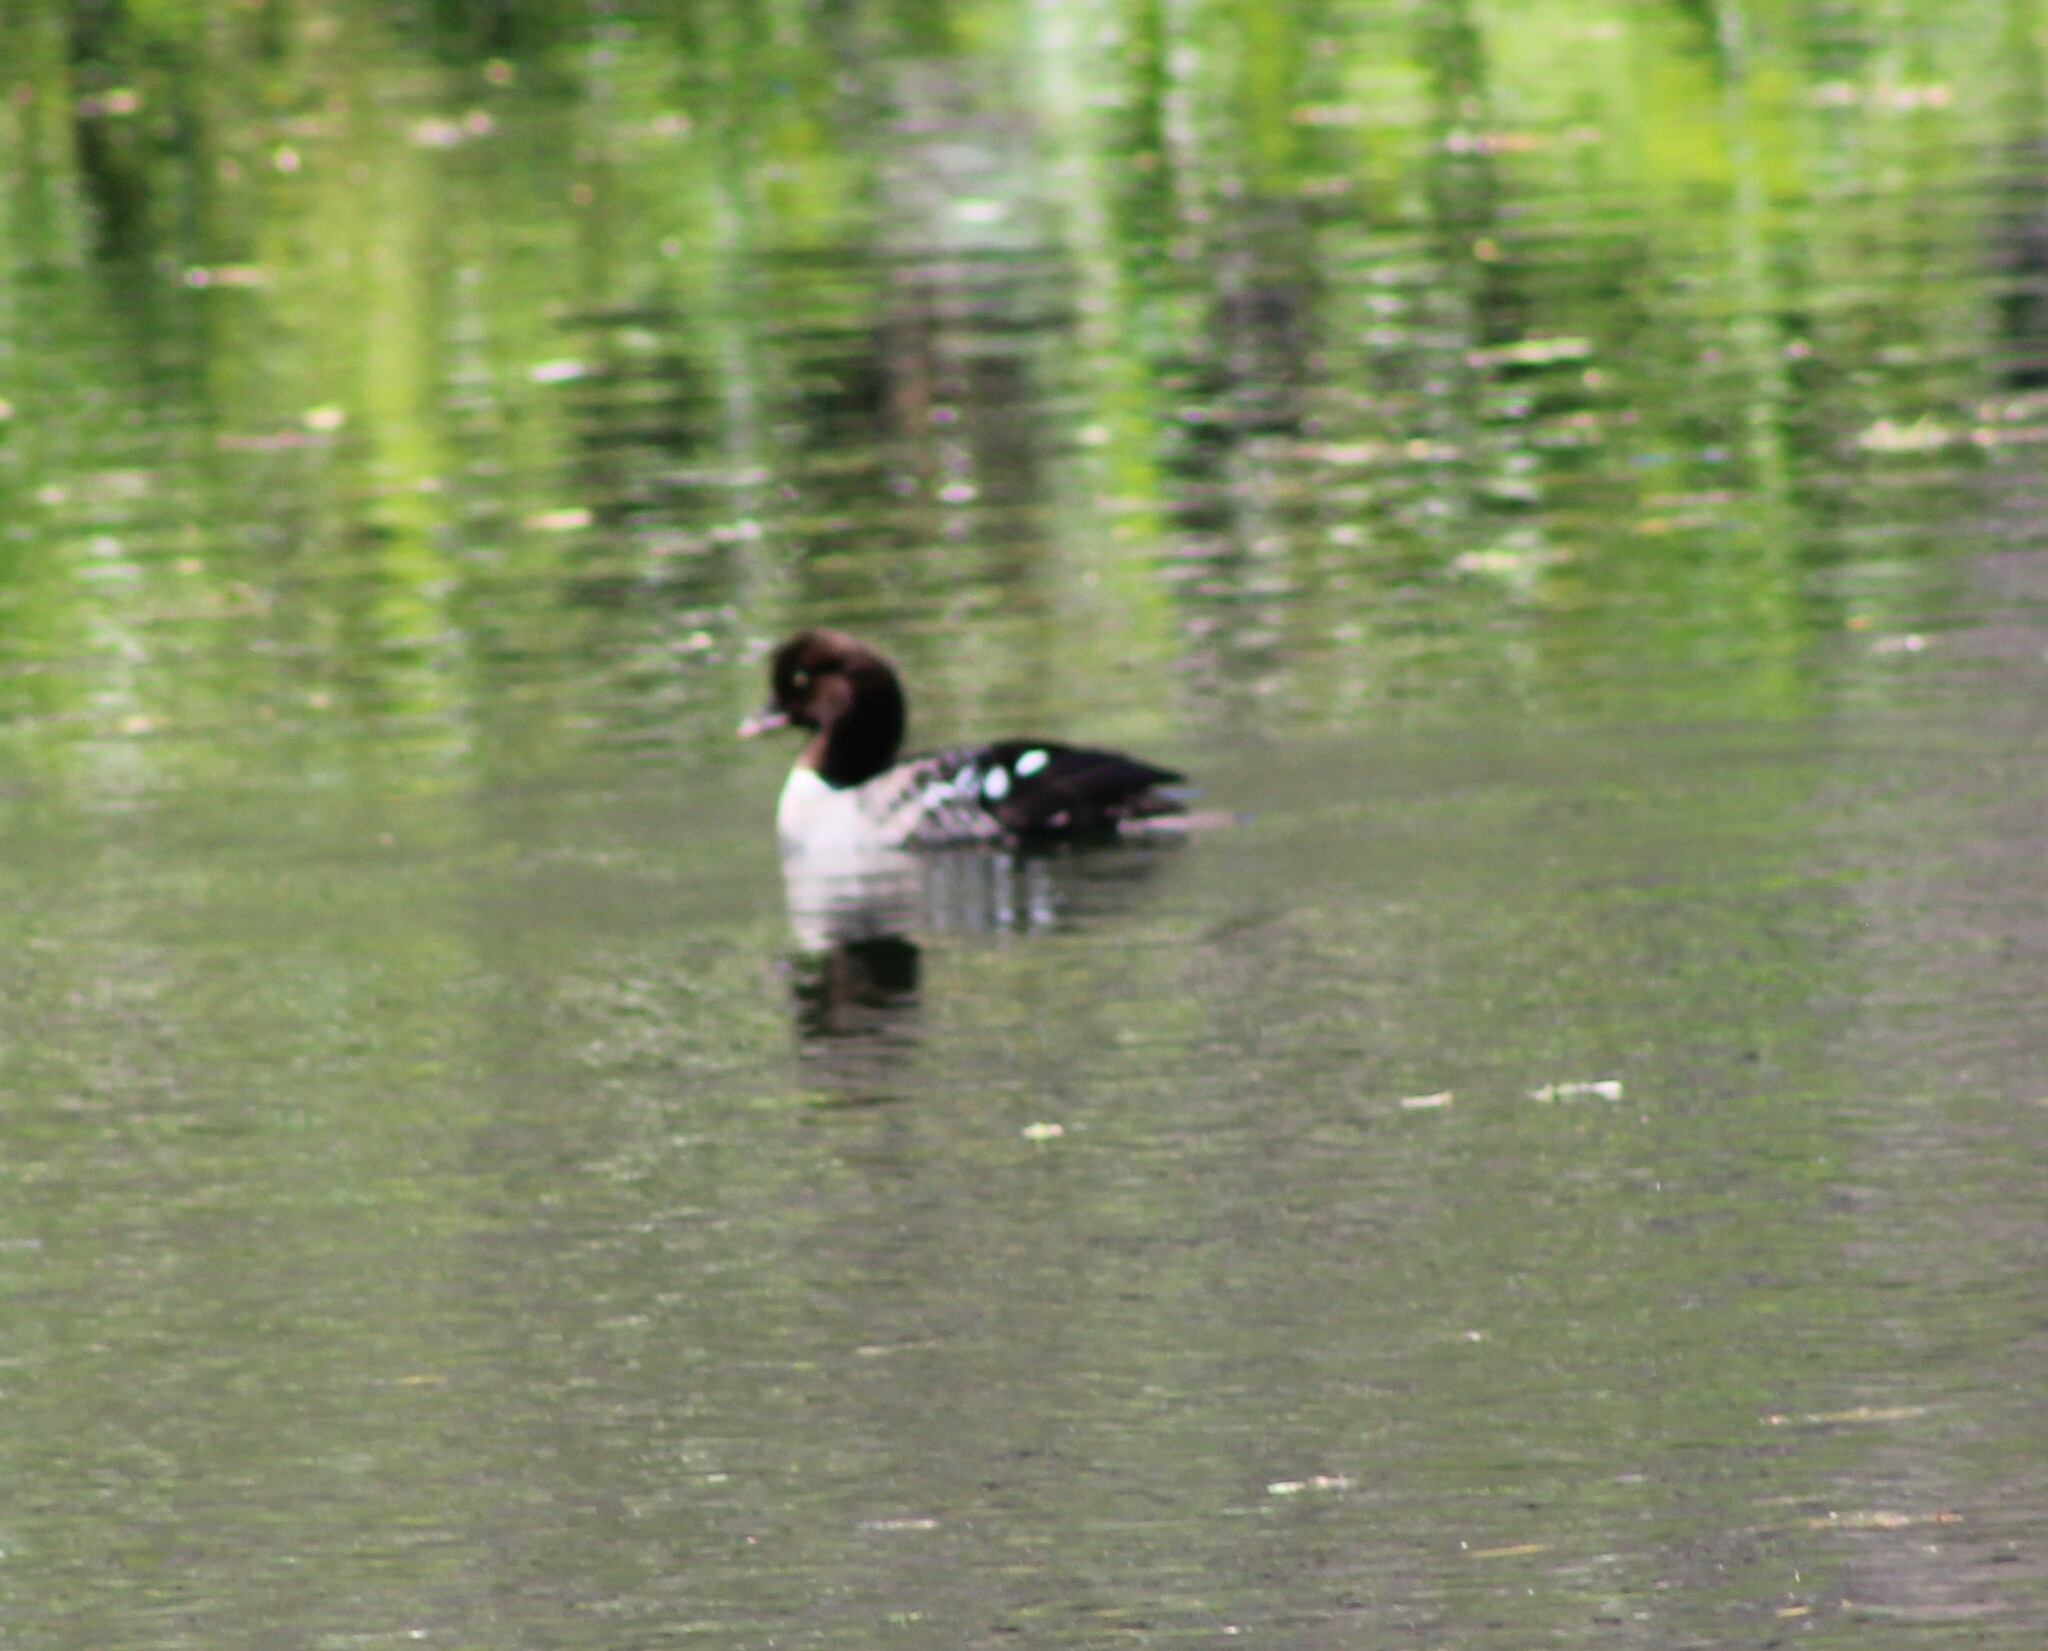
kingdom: Animalia
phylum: Chordata
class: Aves
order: Anseriformes
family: Anatidae
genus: Bucephala
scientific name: Bucephala islandica
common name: Barrow's goldeneye
